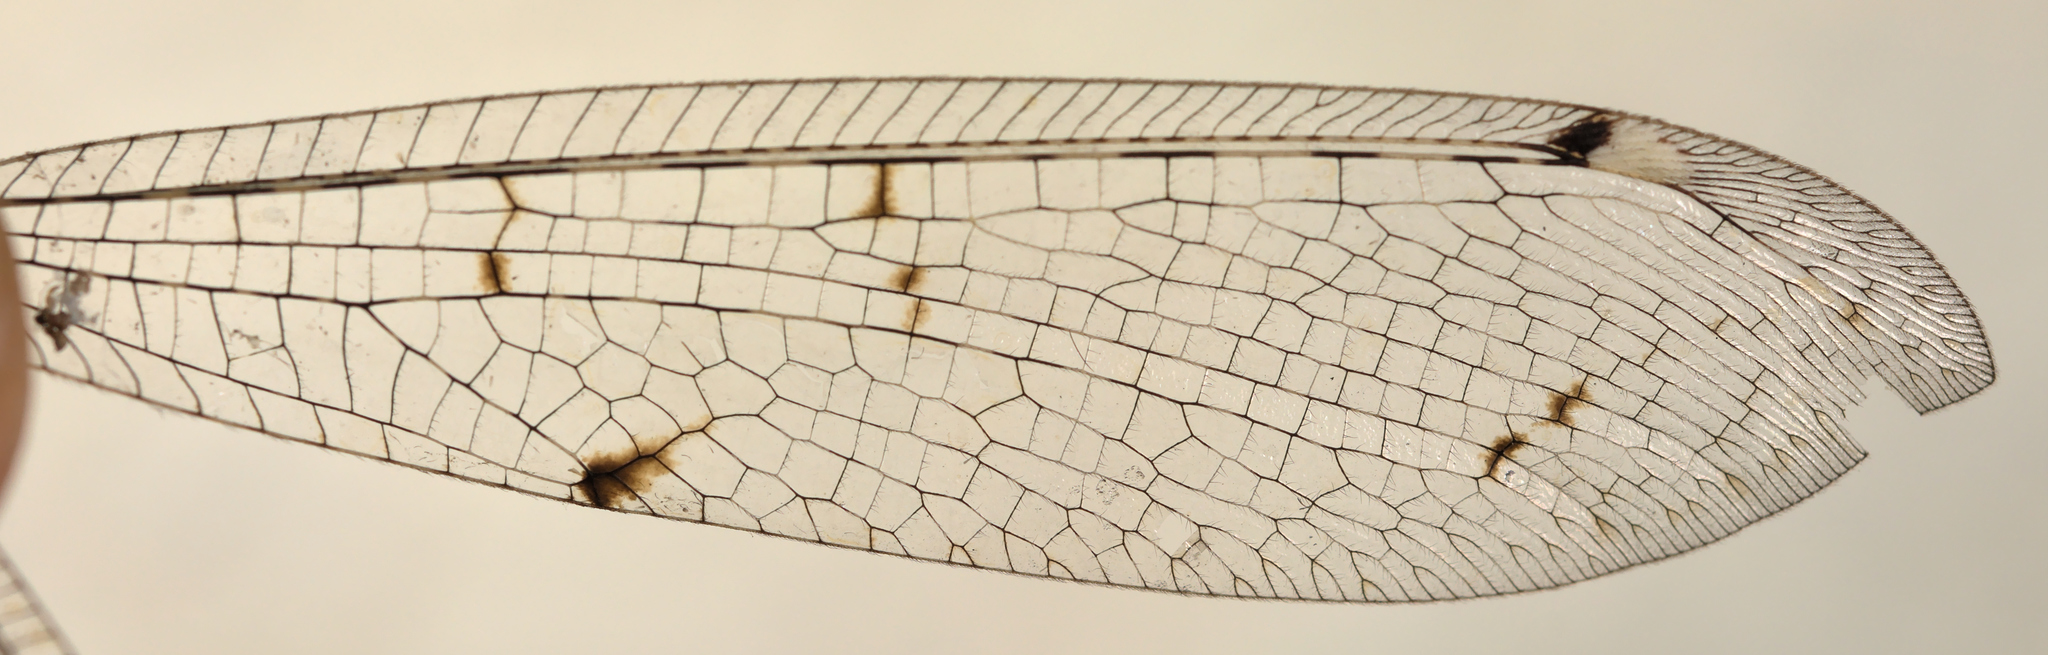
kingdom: Animalia
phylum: Arthropoda
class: Insecta
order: Neuroptera
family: Myrmeleontidae
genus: Distoleon
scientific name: Distoleon tetragrammicus
